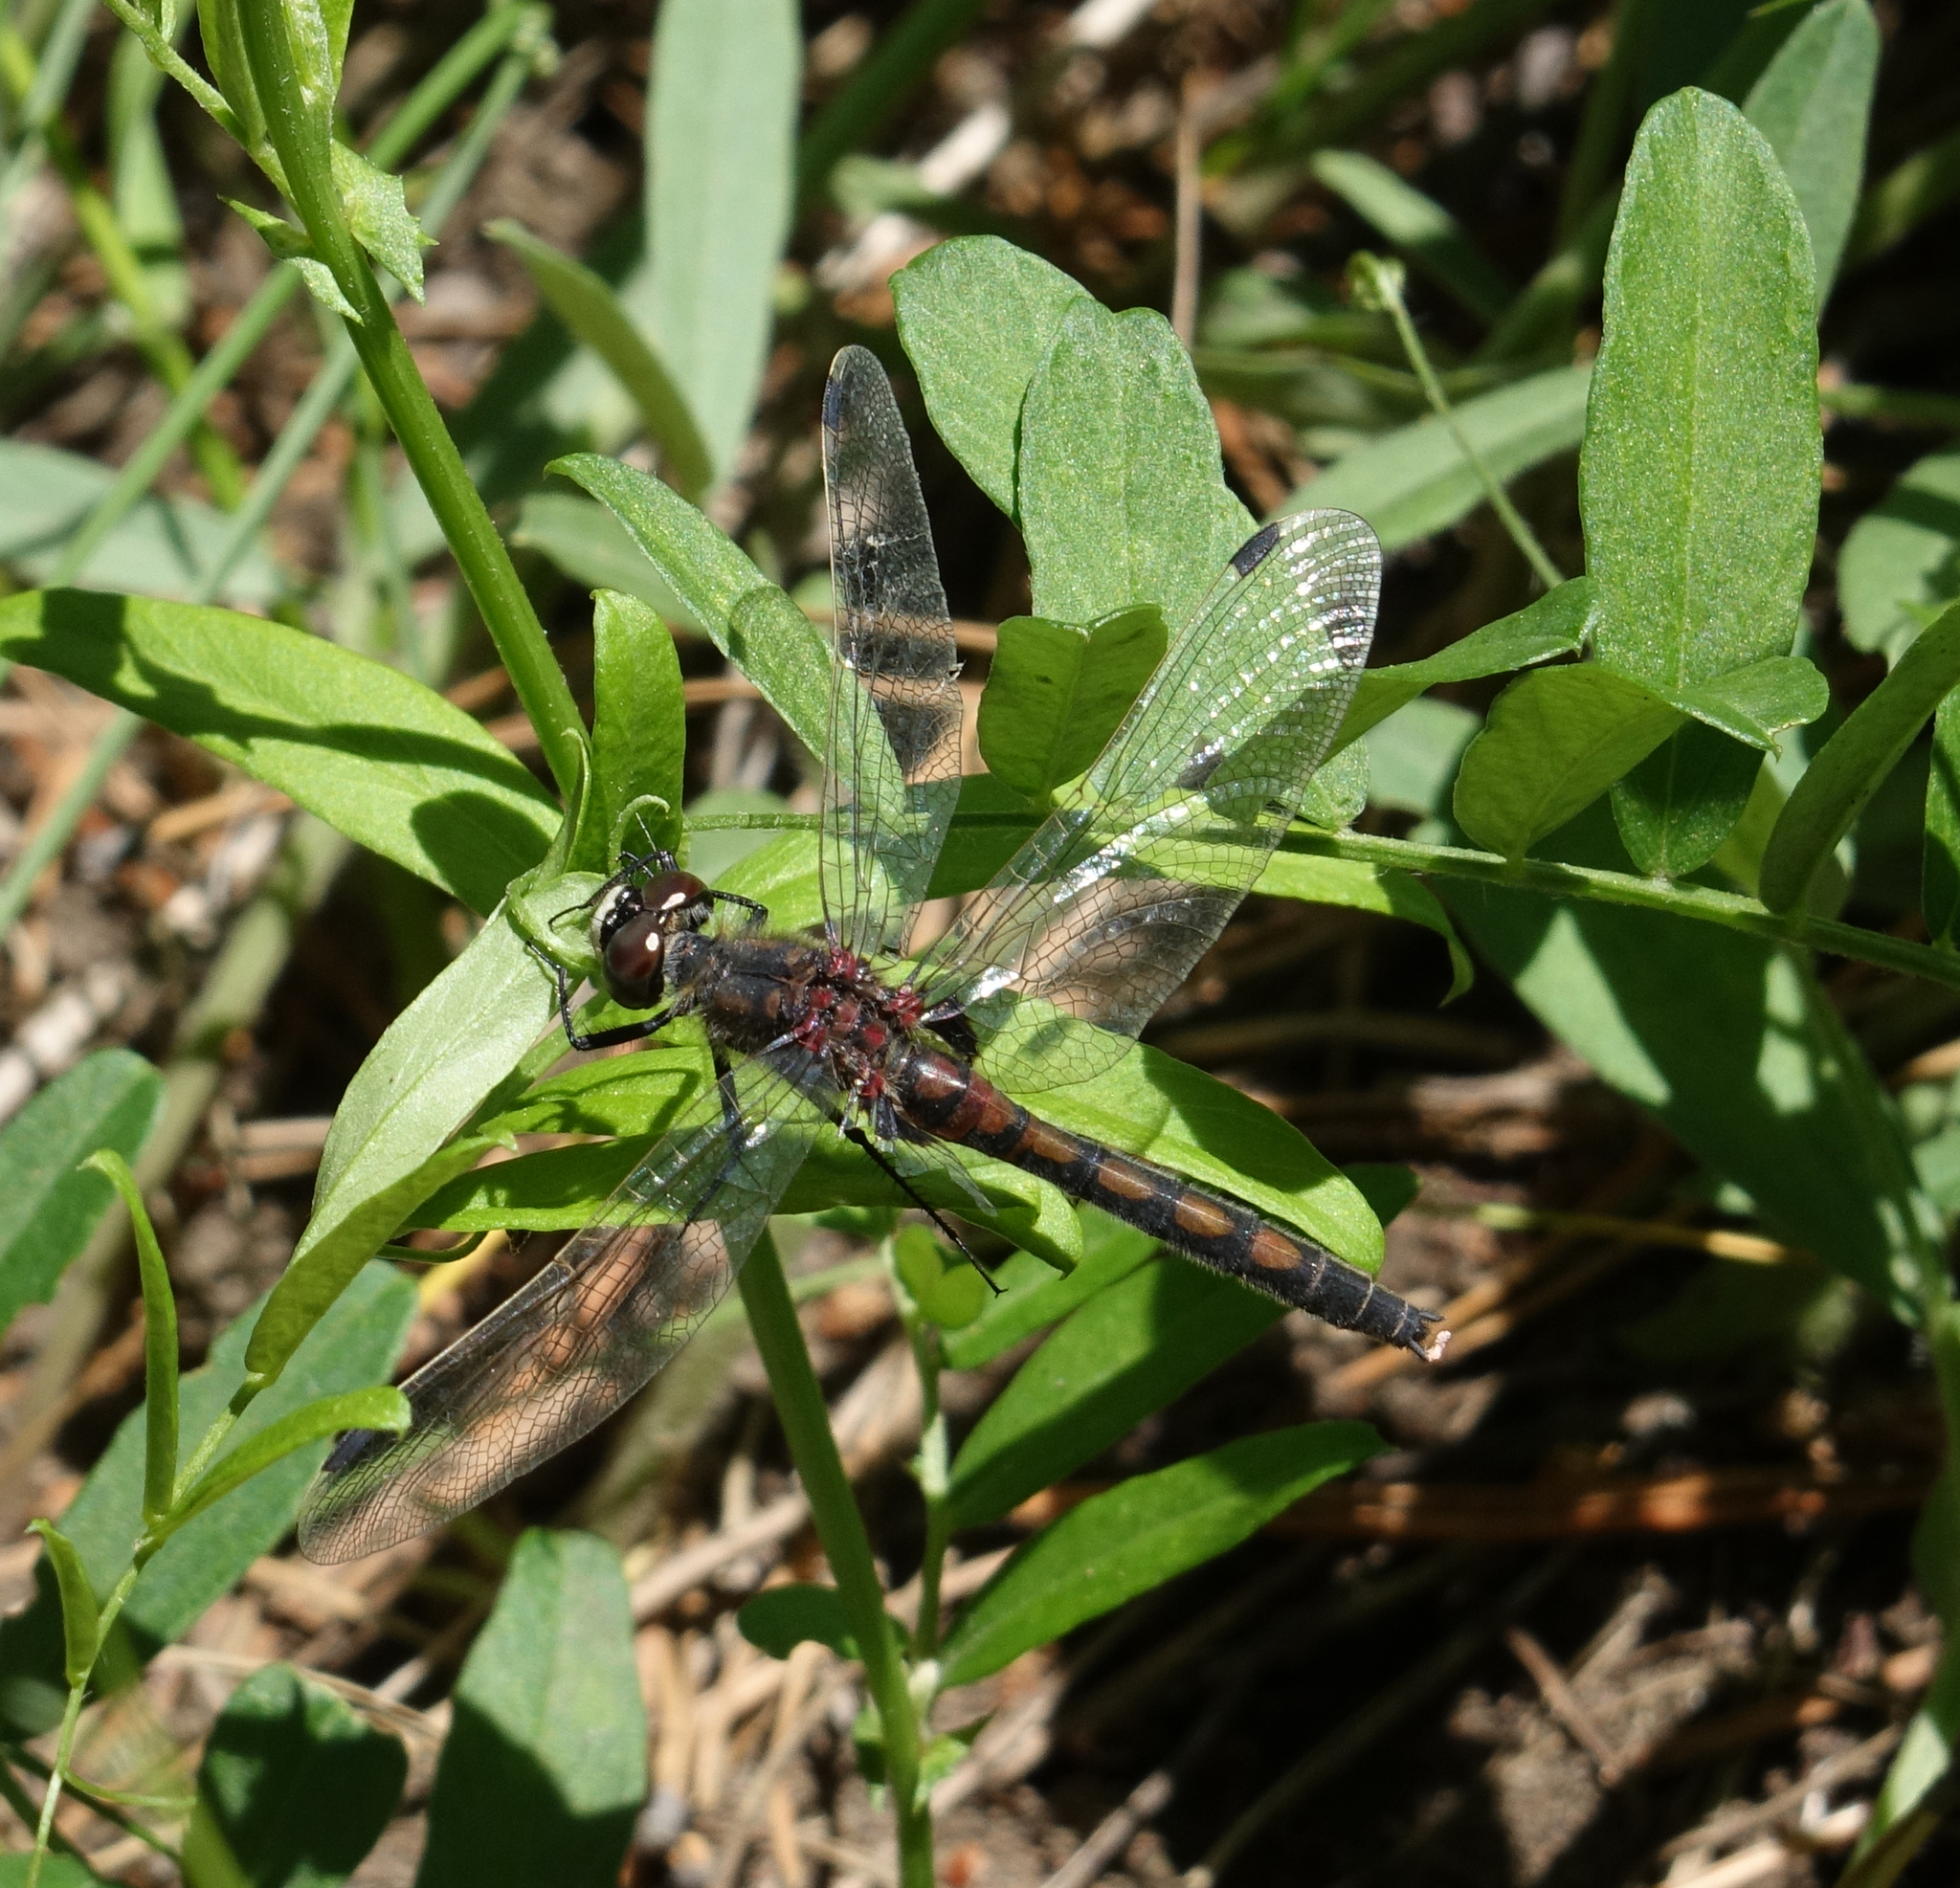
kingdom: Animalia
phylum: Arthropoda
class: Insecta
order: Odonata
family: Libellulidae
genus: Leucorrhinia
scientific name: Leucorrhinia rubicunda
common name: Ruby whiteface
